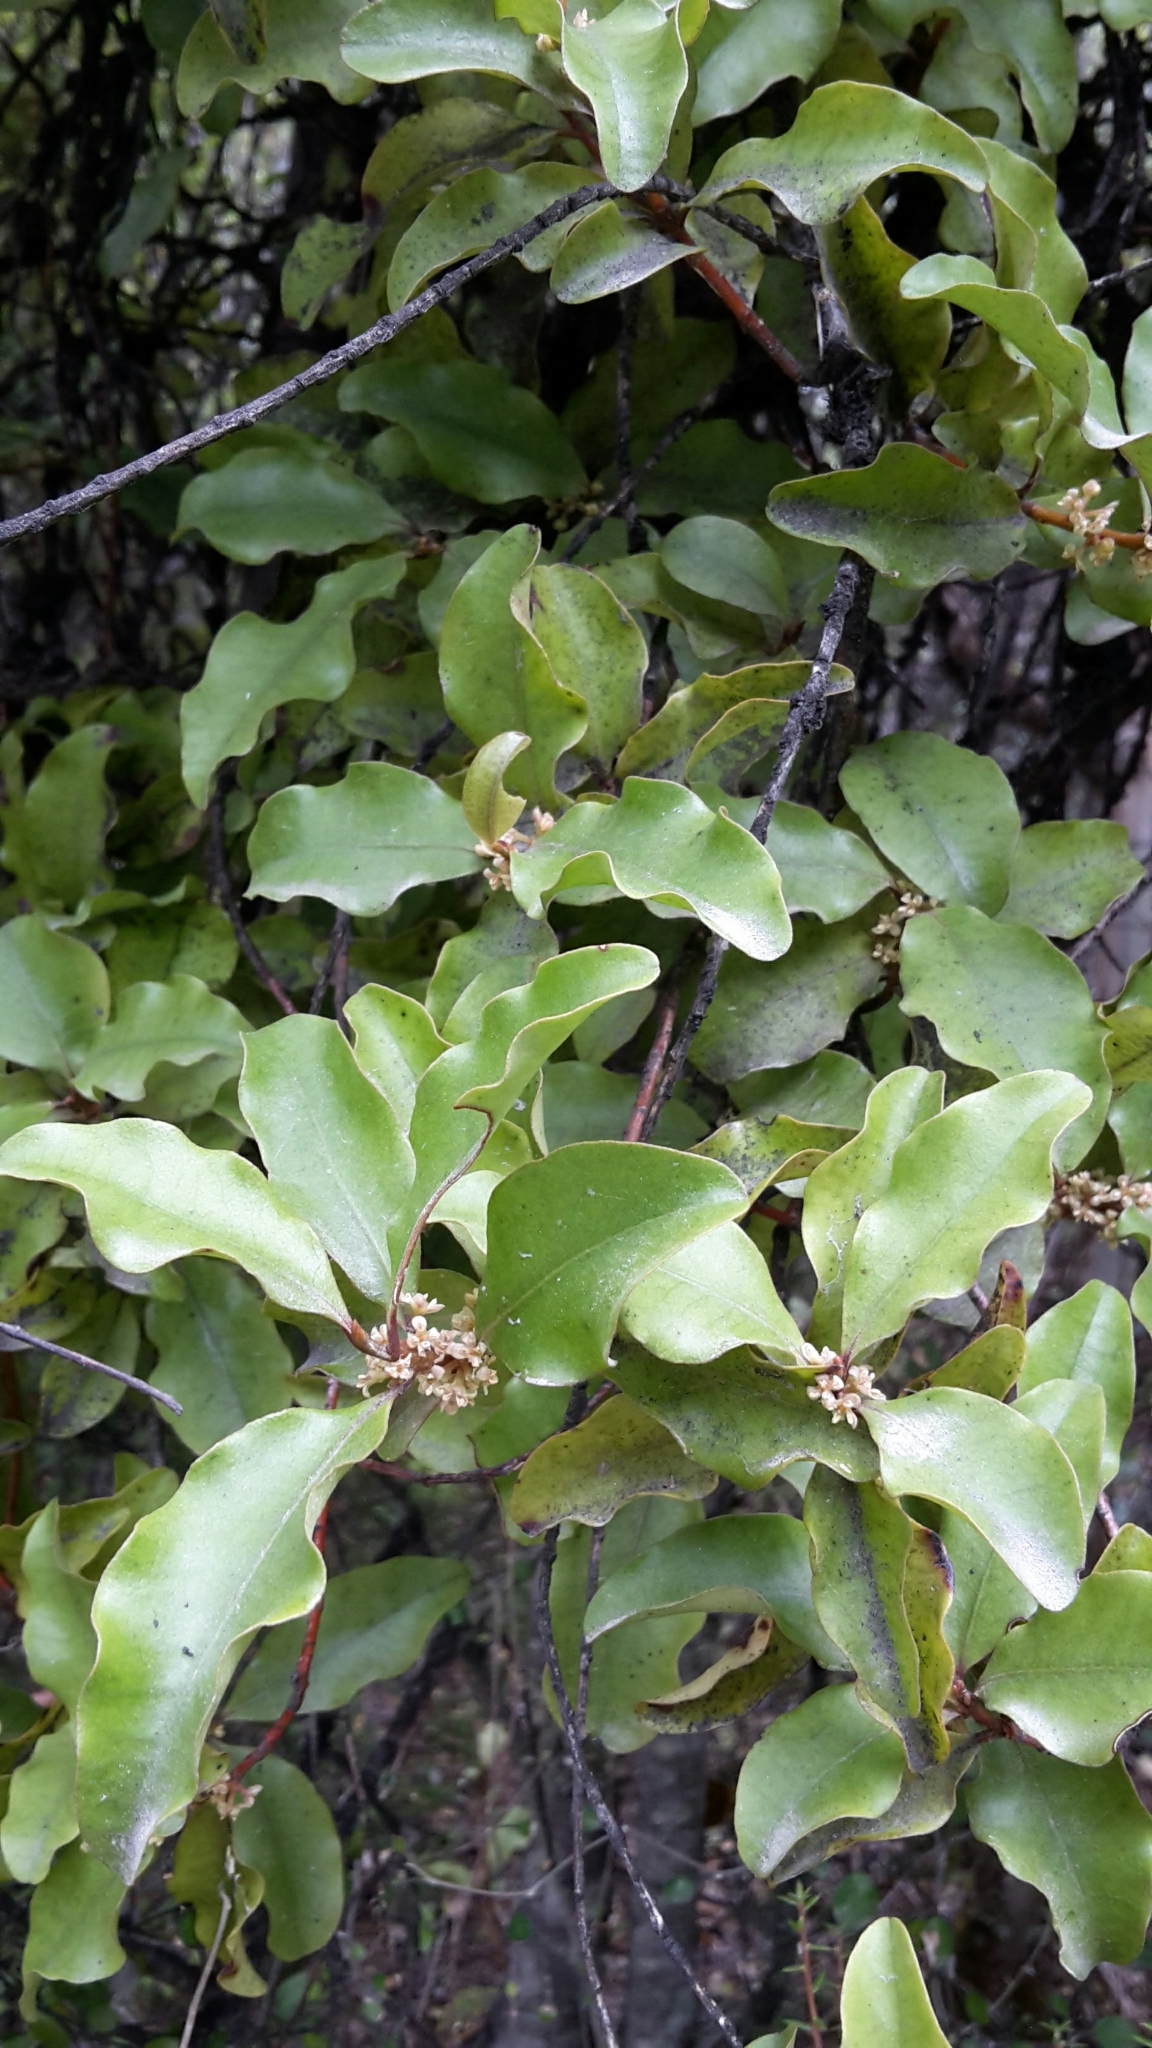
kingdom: Plantae
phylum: Tracheophyta
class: Magnoliopsida
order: Ericales
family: Primulaceae
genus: Myrsine
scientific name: Myrsine australis
